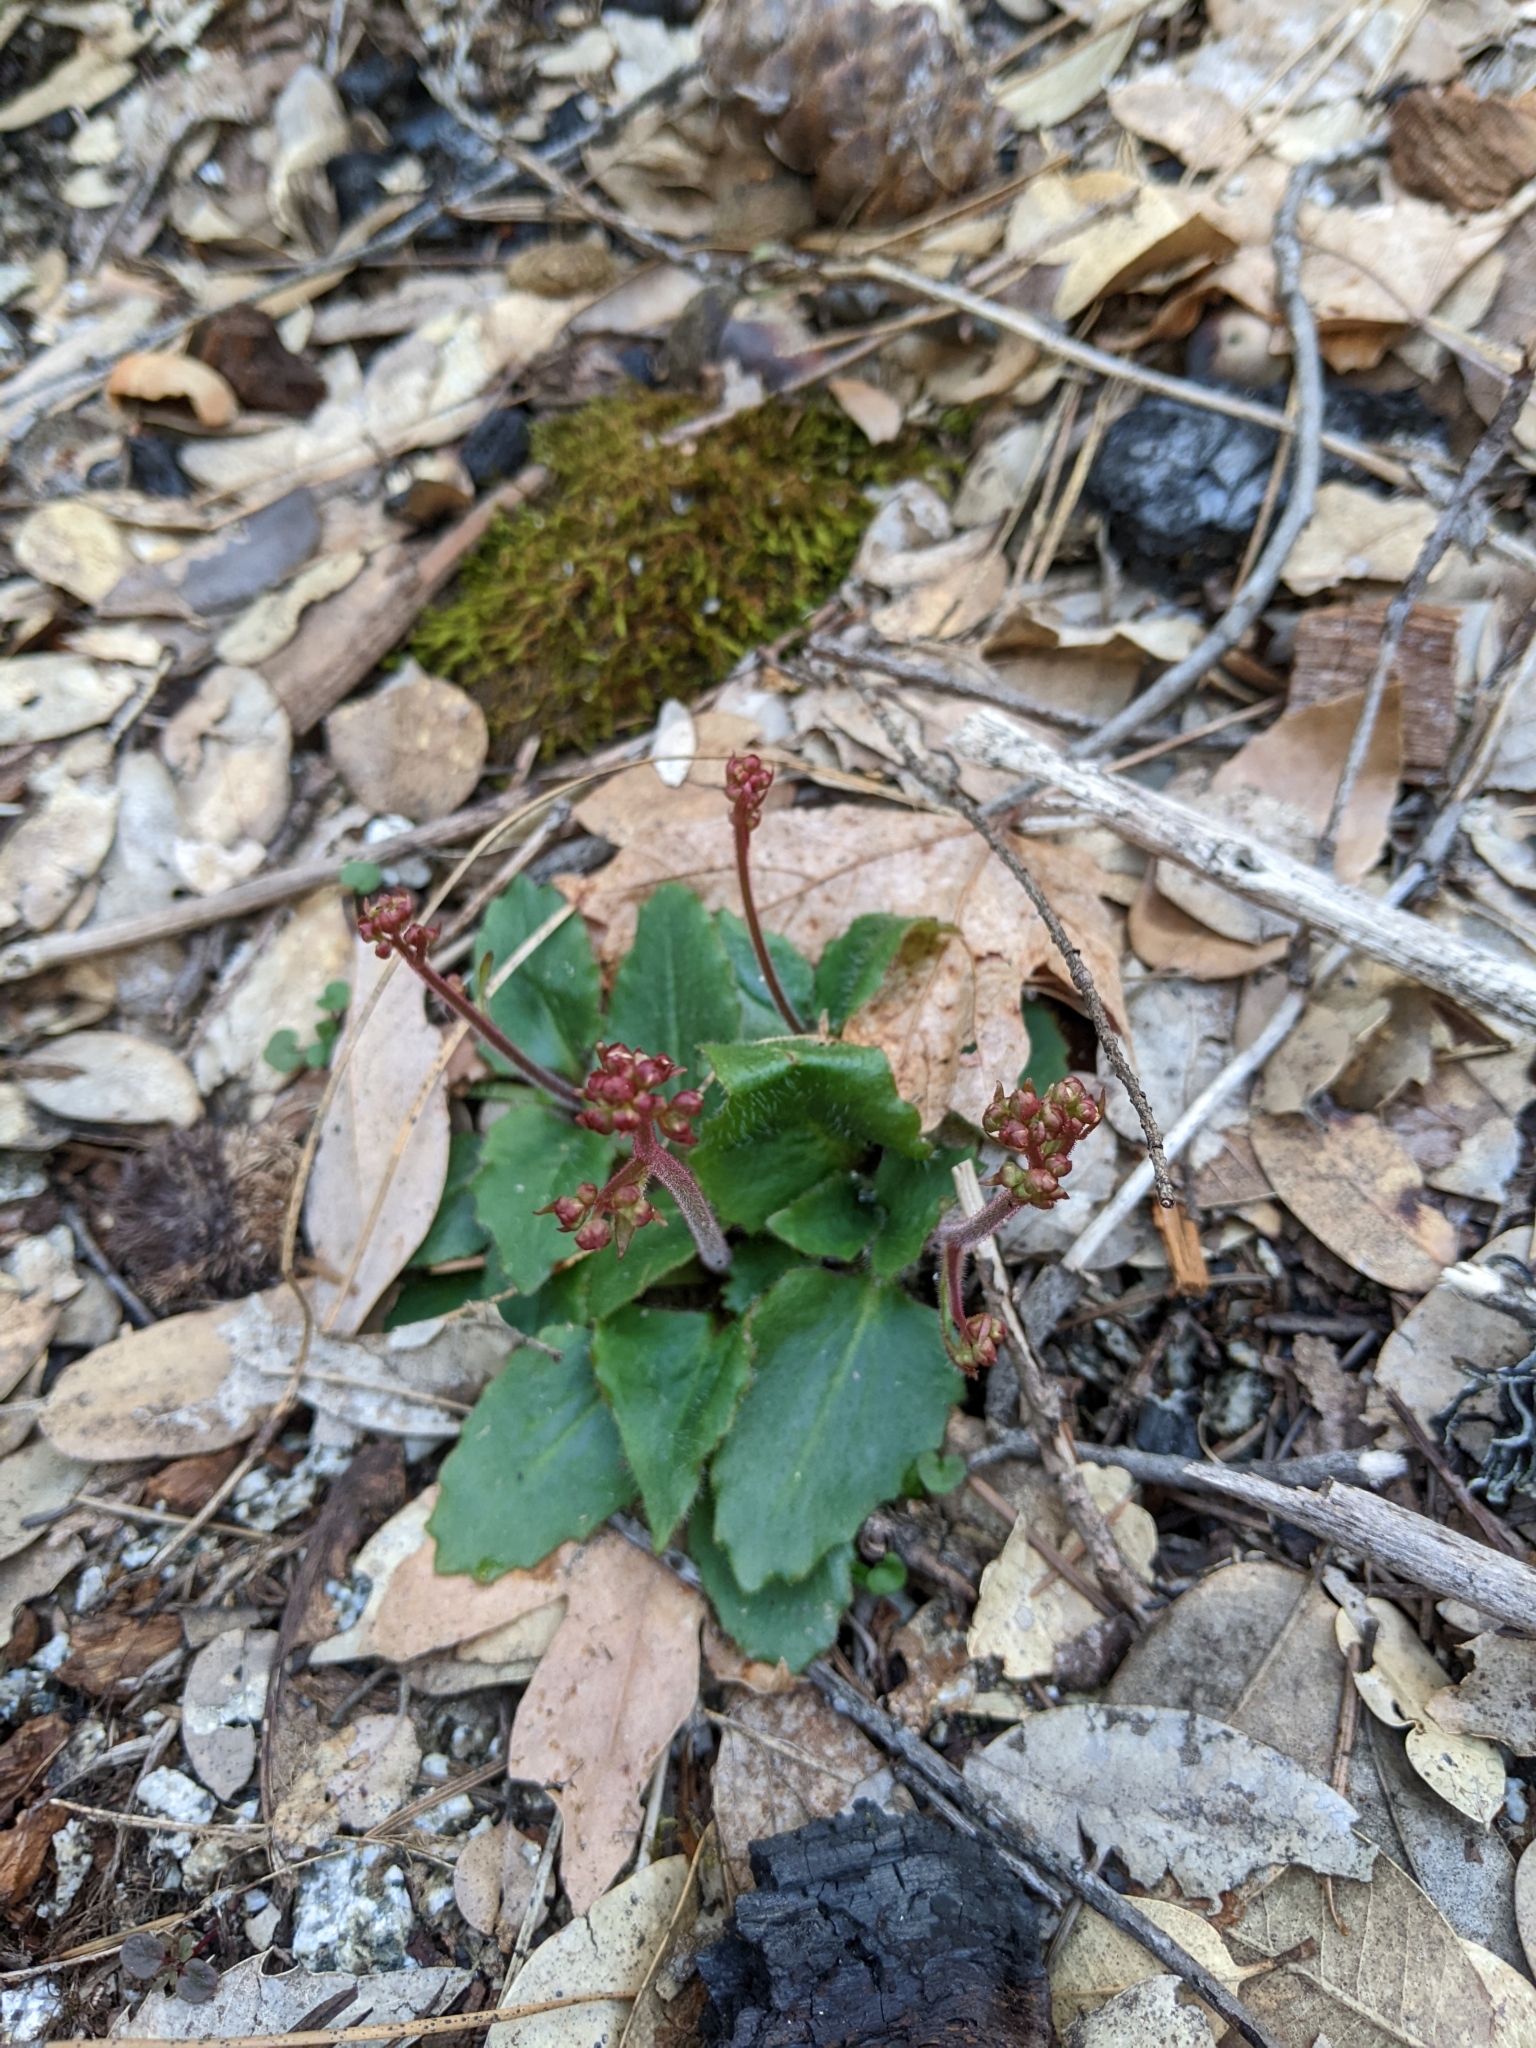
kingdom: Plantae
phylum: Tracheophyta
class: Magnoliopsida
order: Saxifragales
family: Saxifragaceae
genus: Micranthes
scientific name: Micranthes californica
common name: California saxifrage
